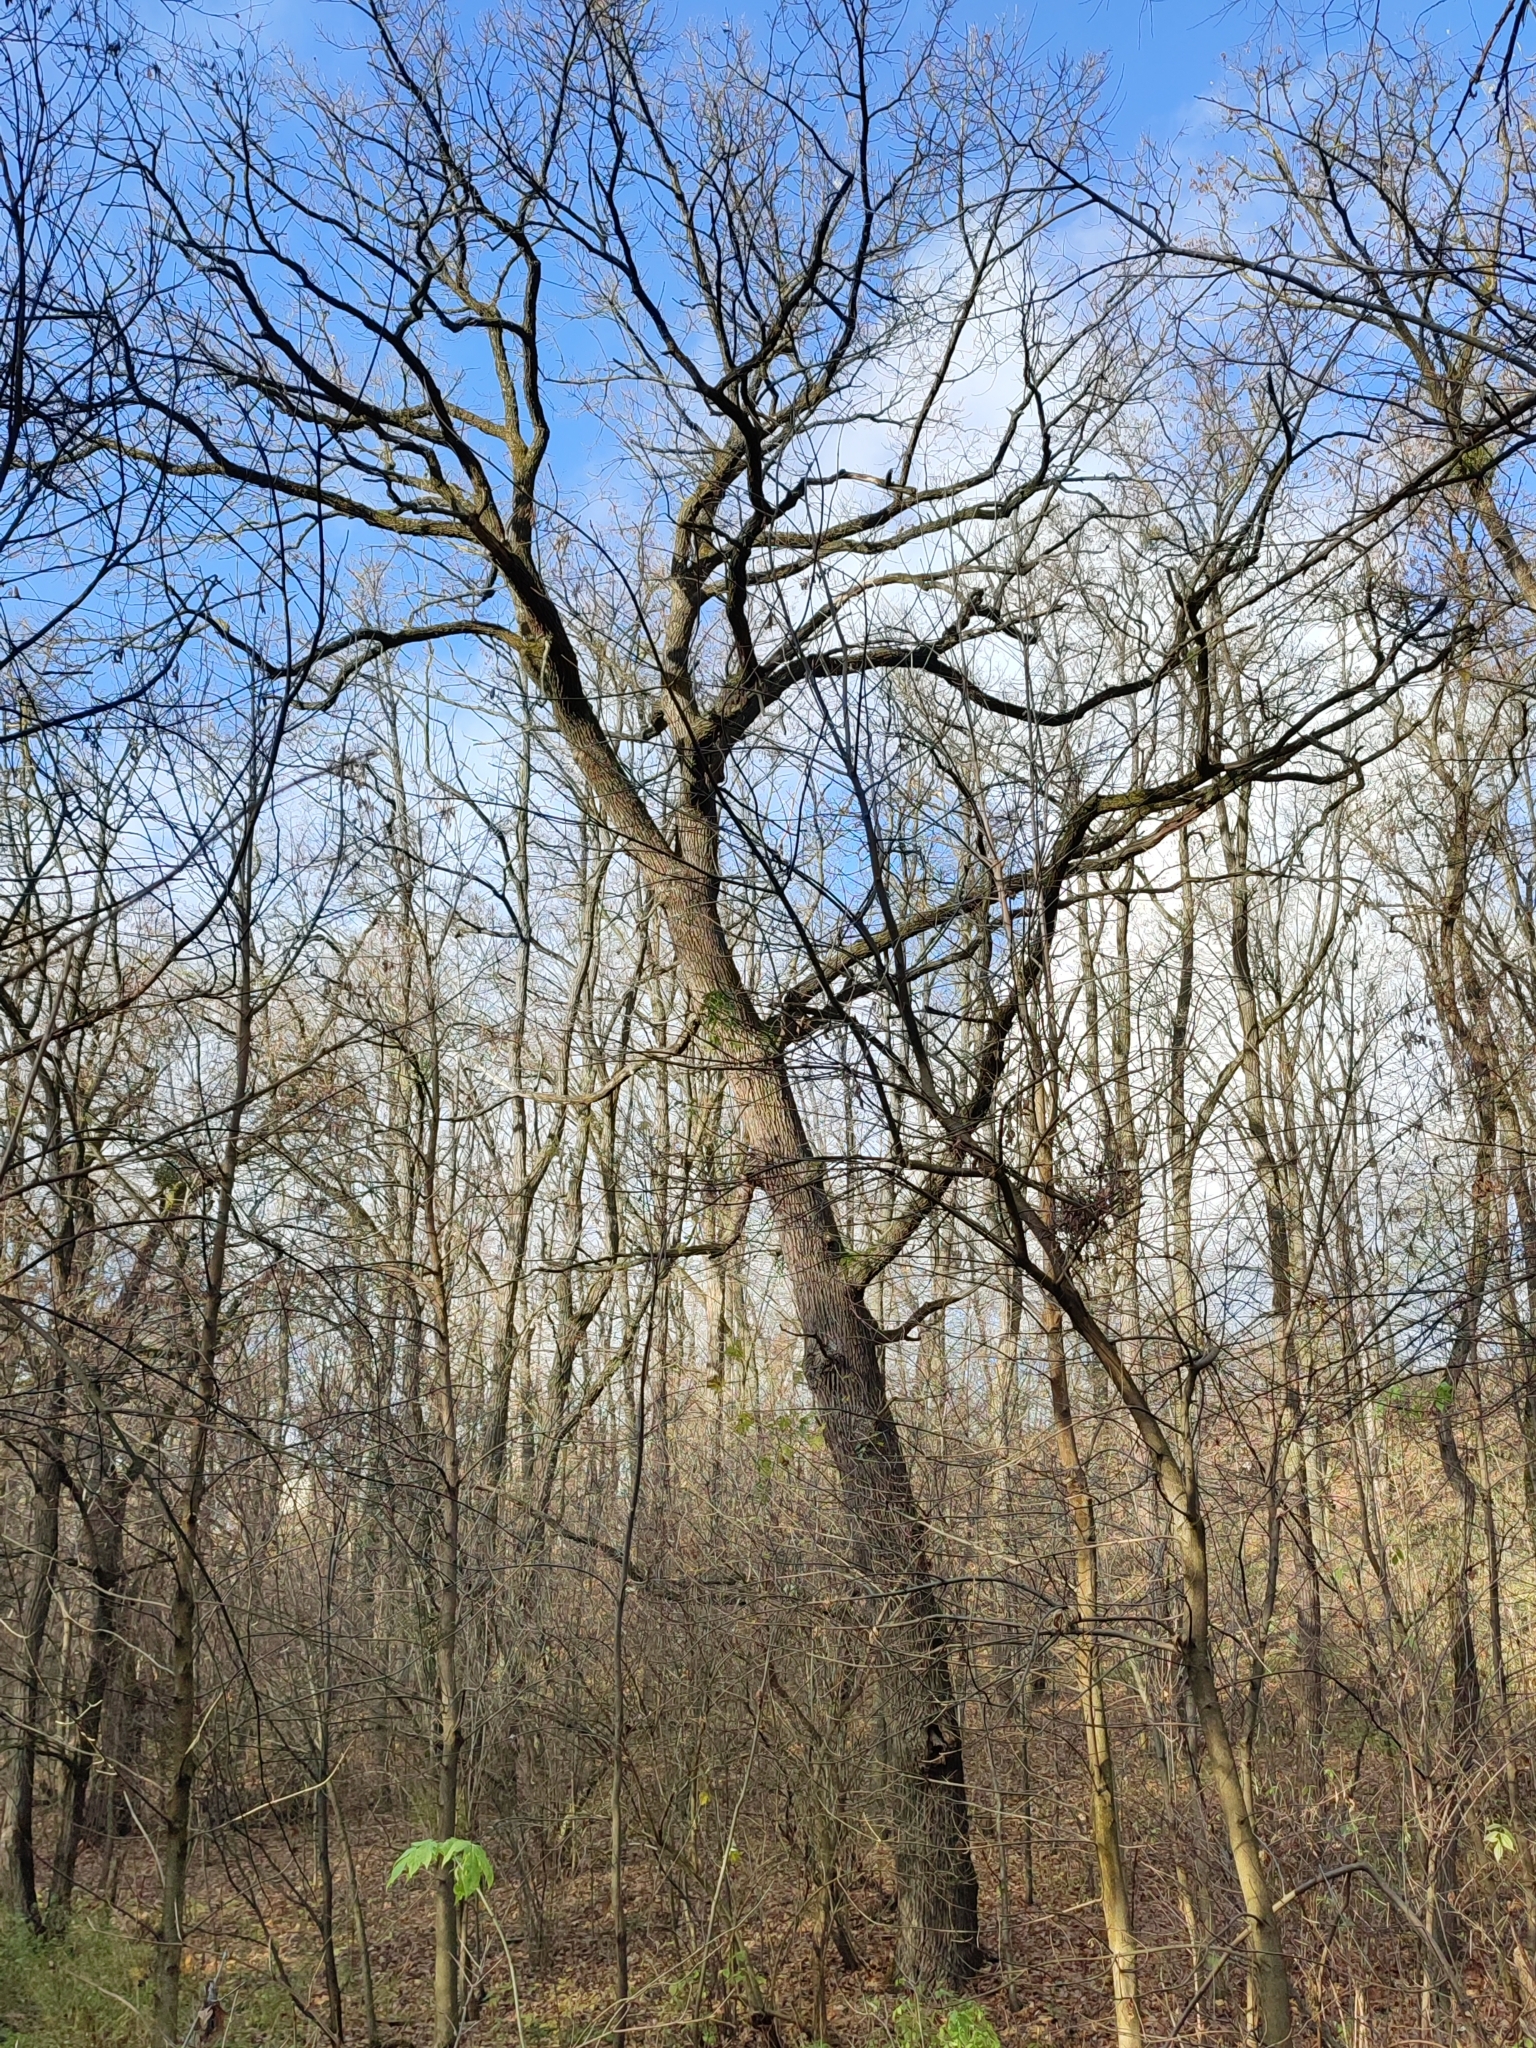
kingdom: Plantae
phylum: Tracheophyta
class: Magnoliopsida
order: Fagales
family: Fagaceae
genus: Quercus
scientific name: Quercus robur
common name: Pedunculate oak
